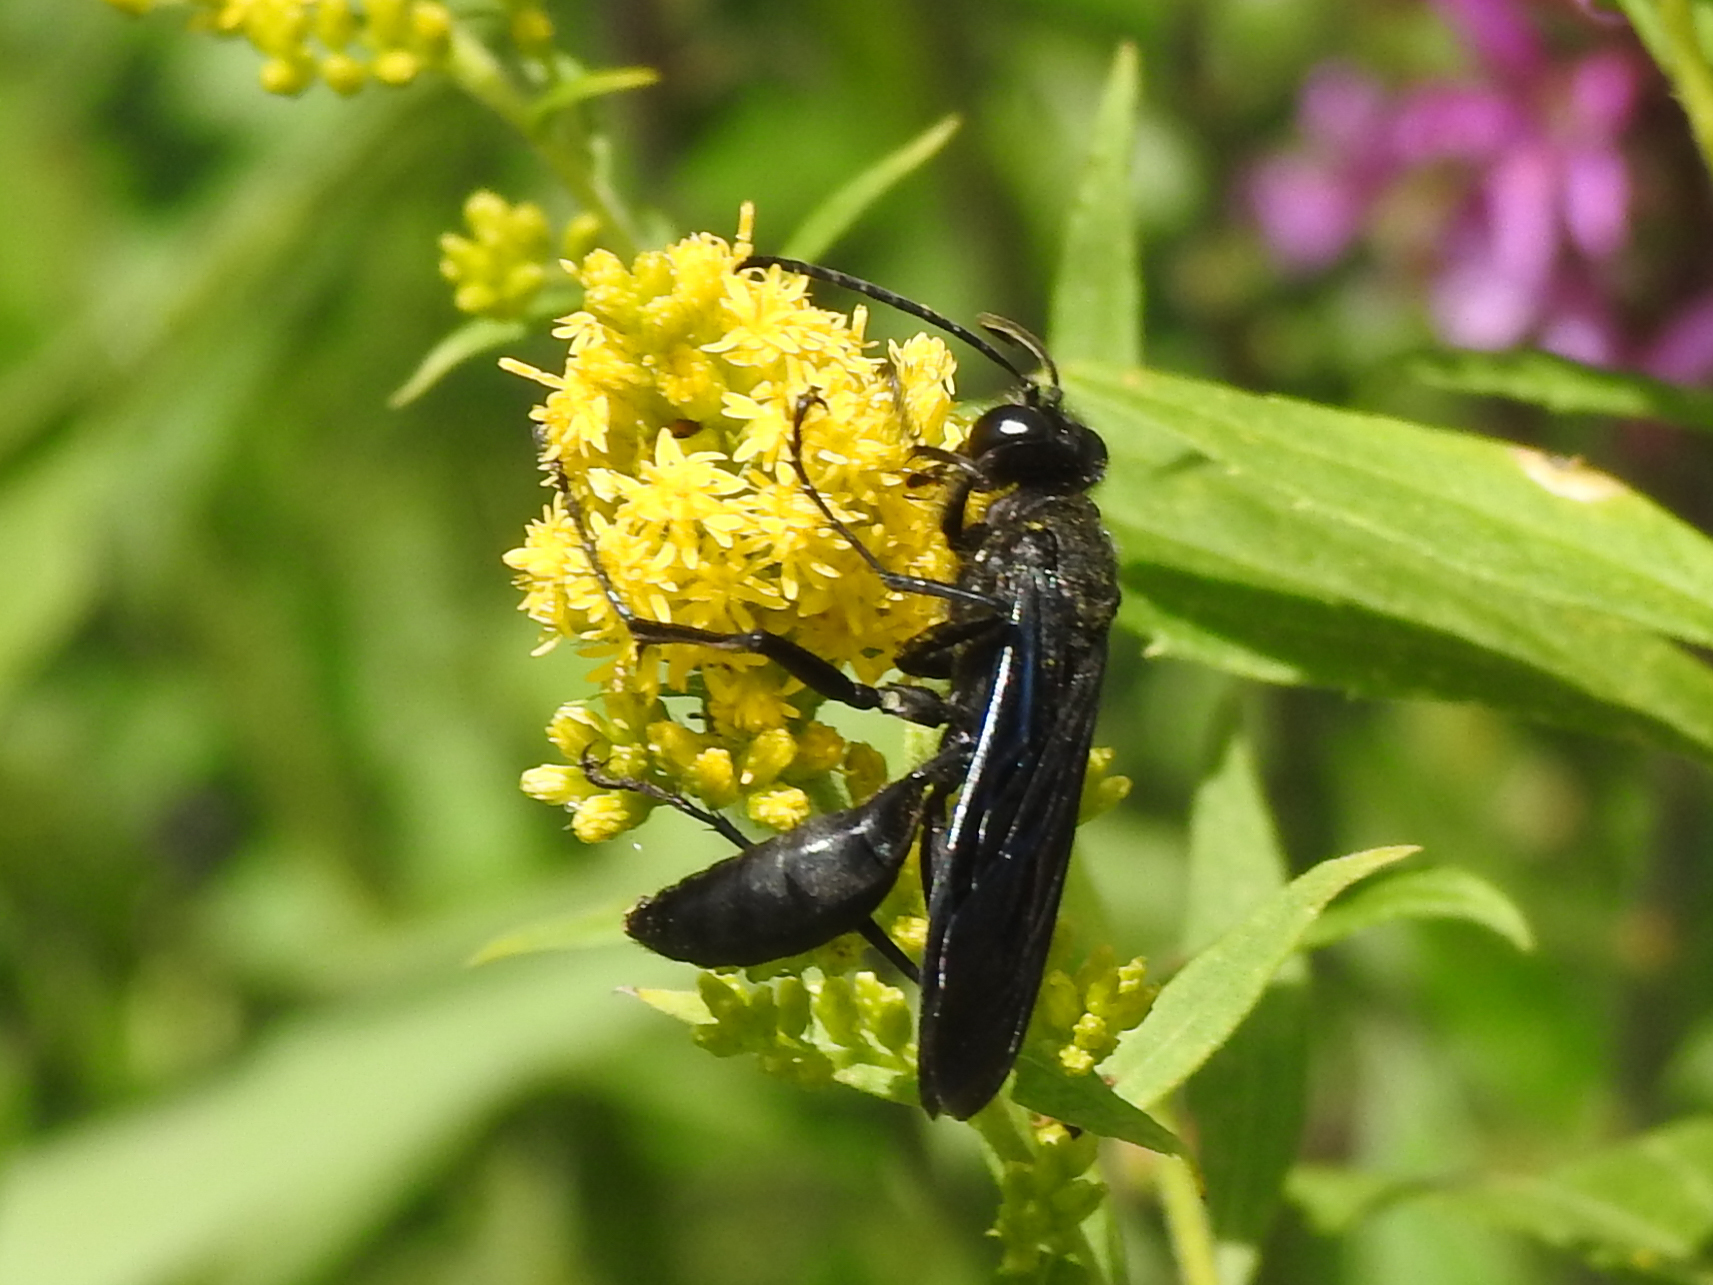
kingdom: Animalia
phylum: Arthropoda
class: Insecta
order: Hymenoptera
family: Sphecidae
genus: Sphex
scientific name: Sphex pensylvanicus
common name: Great black digger wasp
